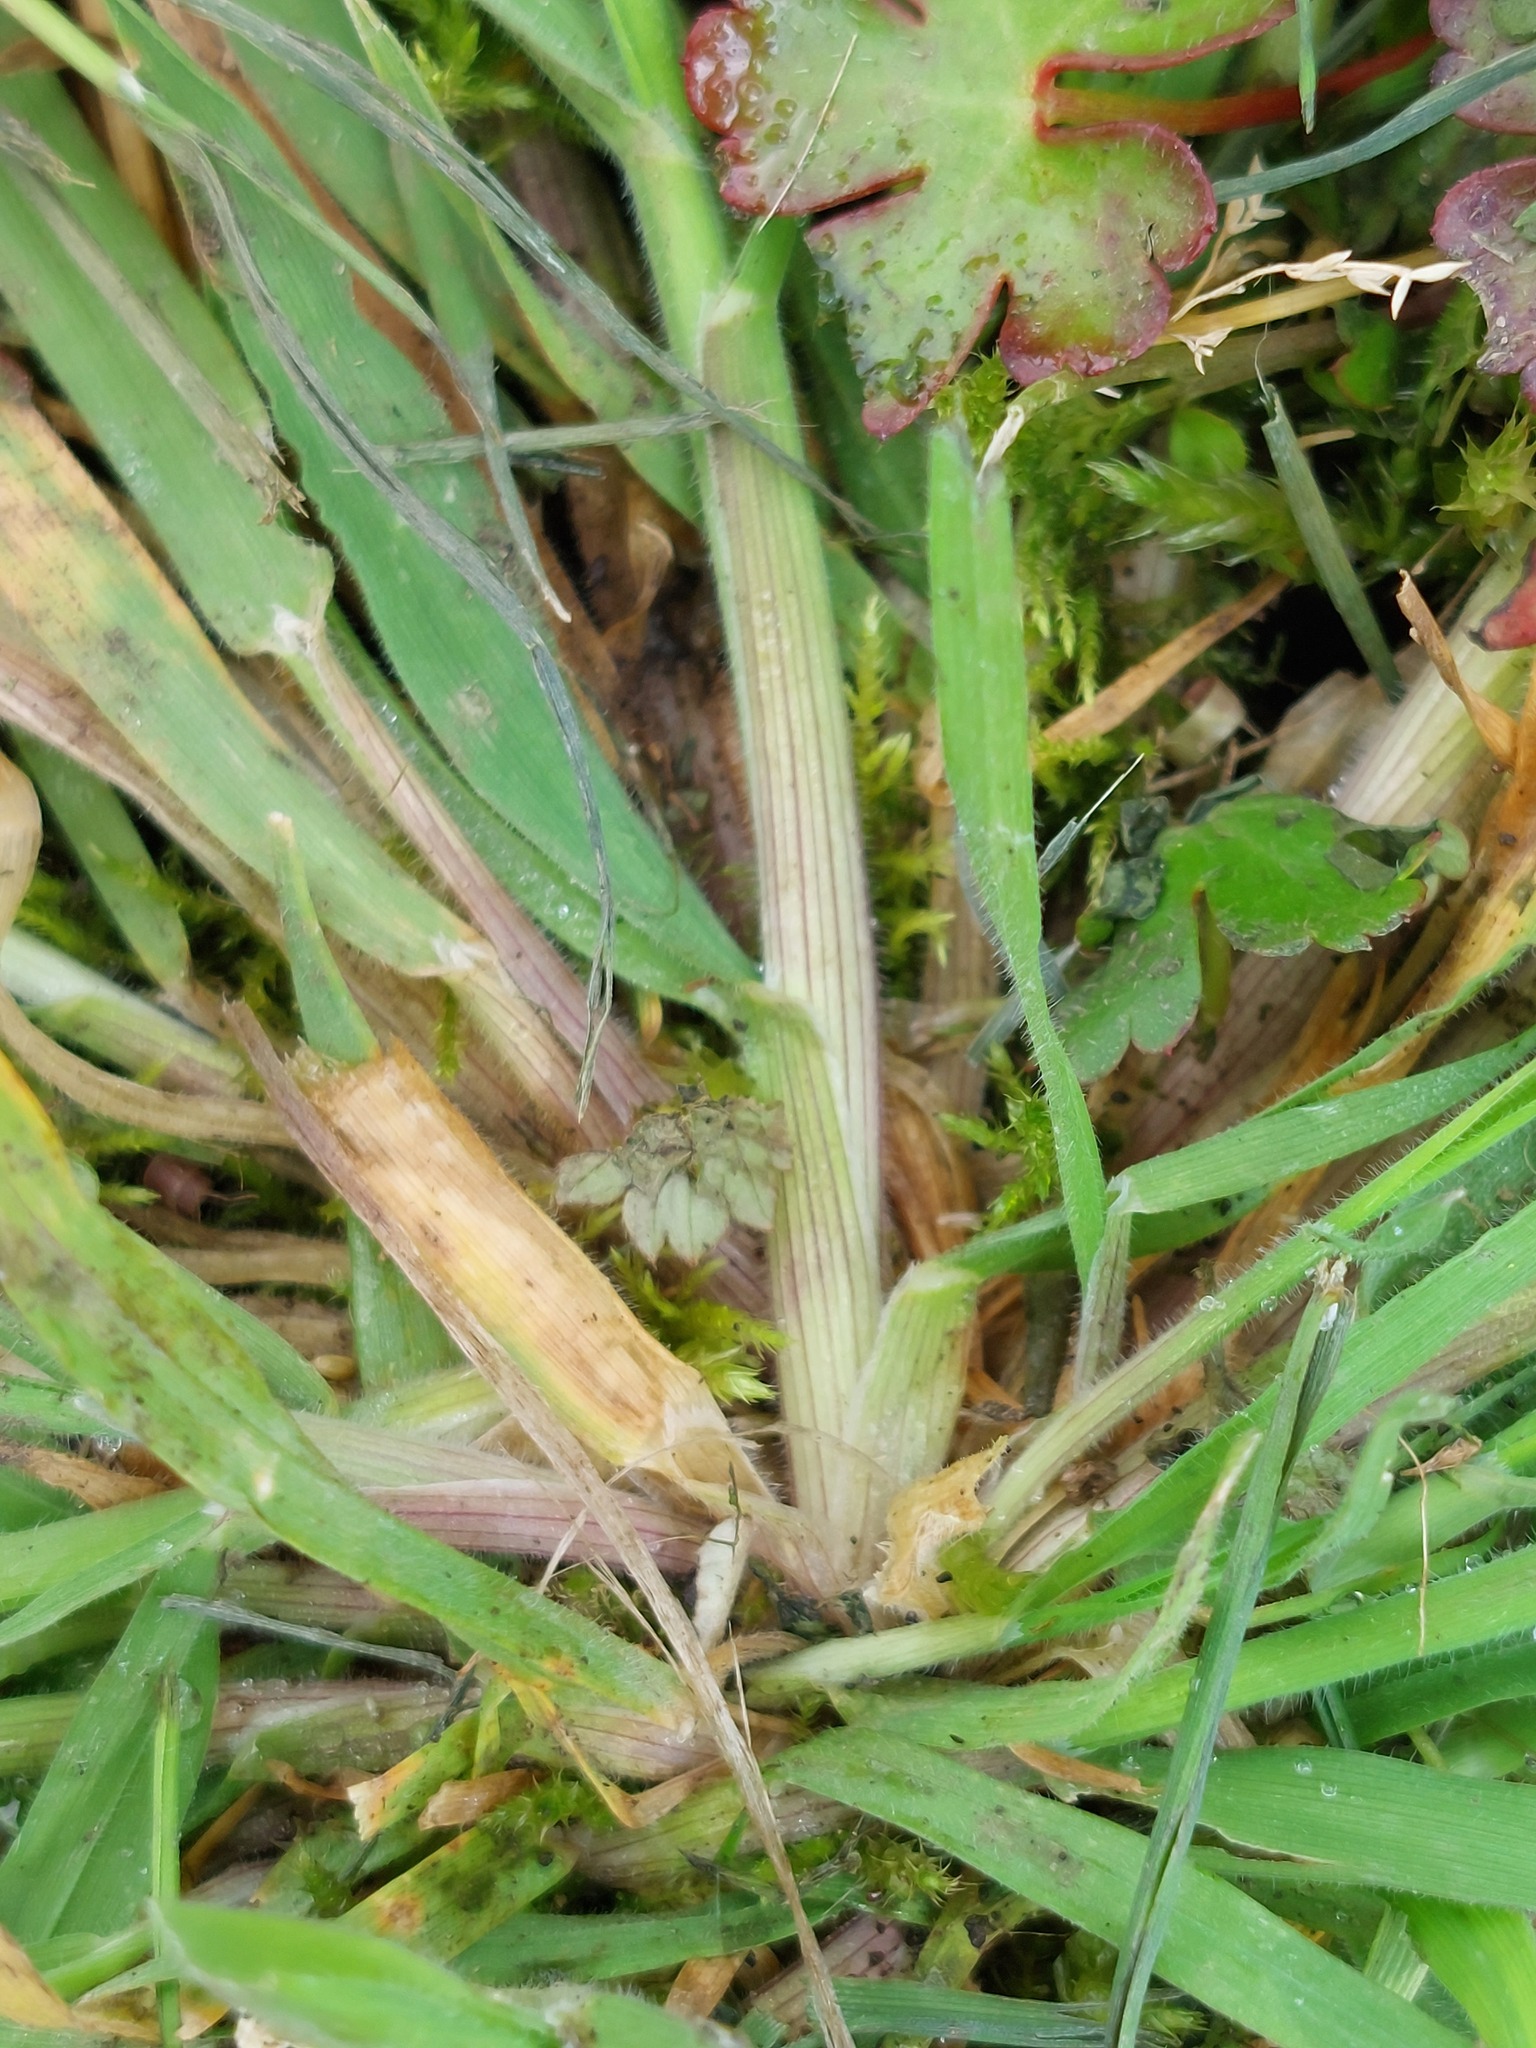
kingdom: Plantae
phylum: Tracheophyta
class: Liliopsida
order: Poales
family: Poaceae
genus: Holcus
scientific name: Holcus lanatus
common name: Yorkshire-fog
